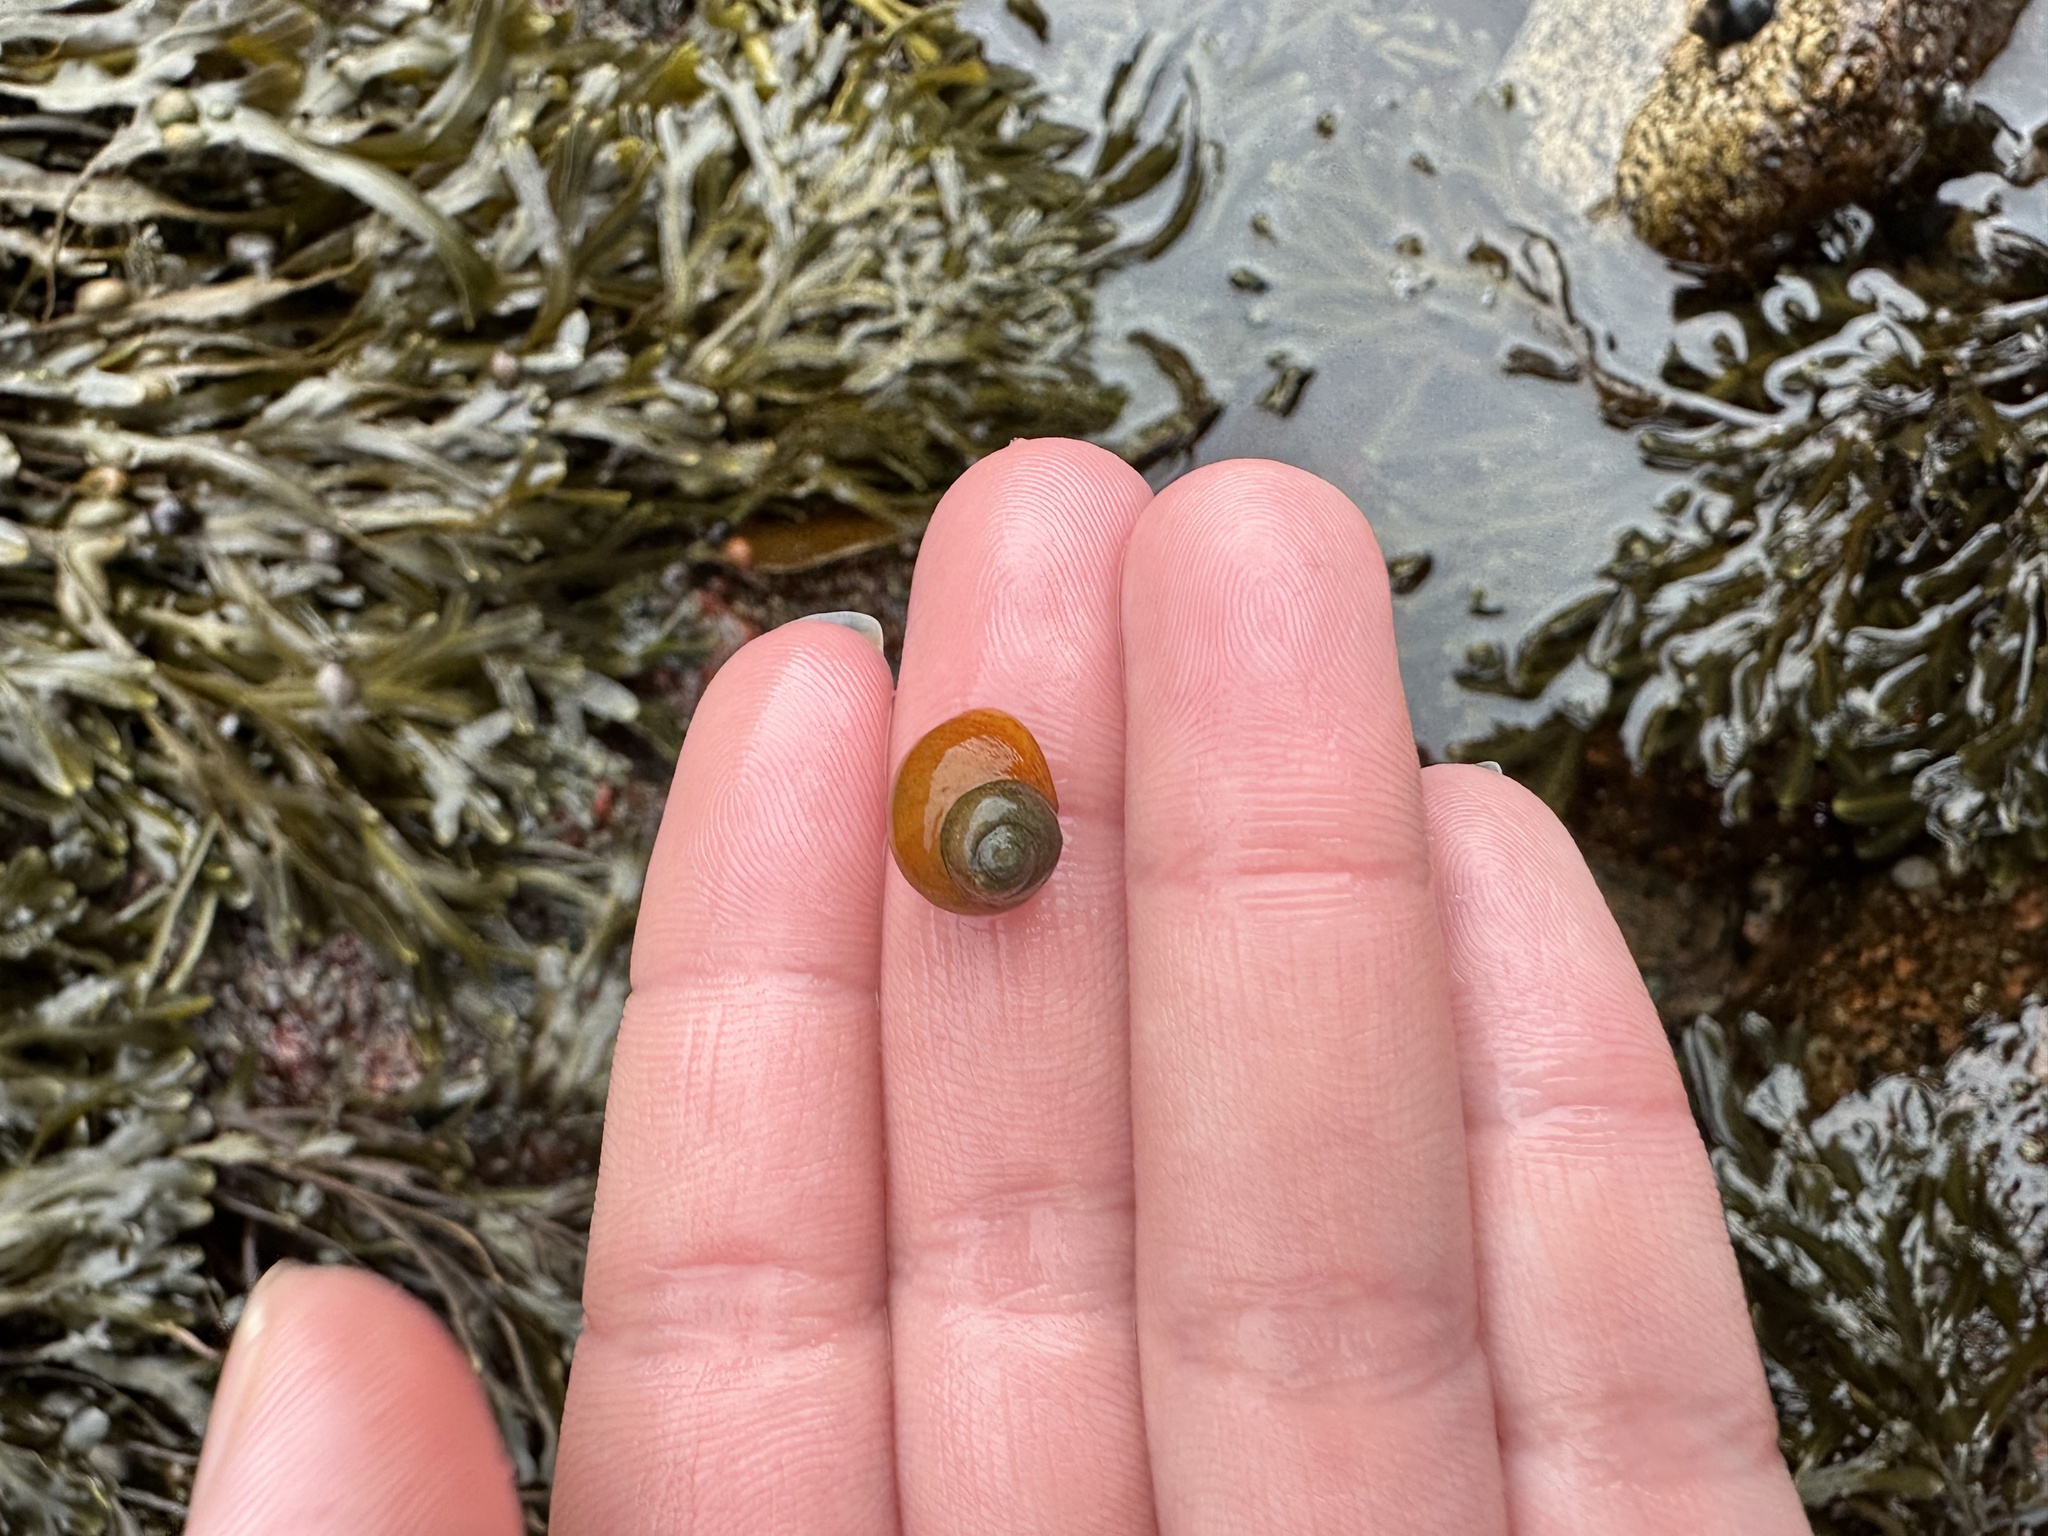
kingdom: Animalia
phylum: Mollusca
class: Gastropoda
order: Littorinimorpha
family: Littorinidae
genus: Littorina
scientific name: Littorina obtusata
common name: Flat periwinkle
